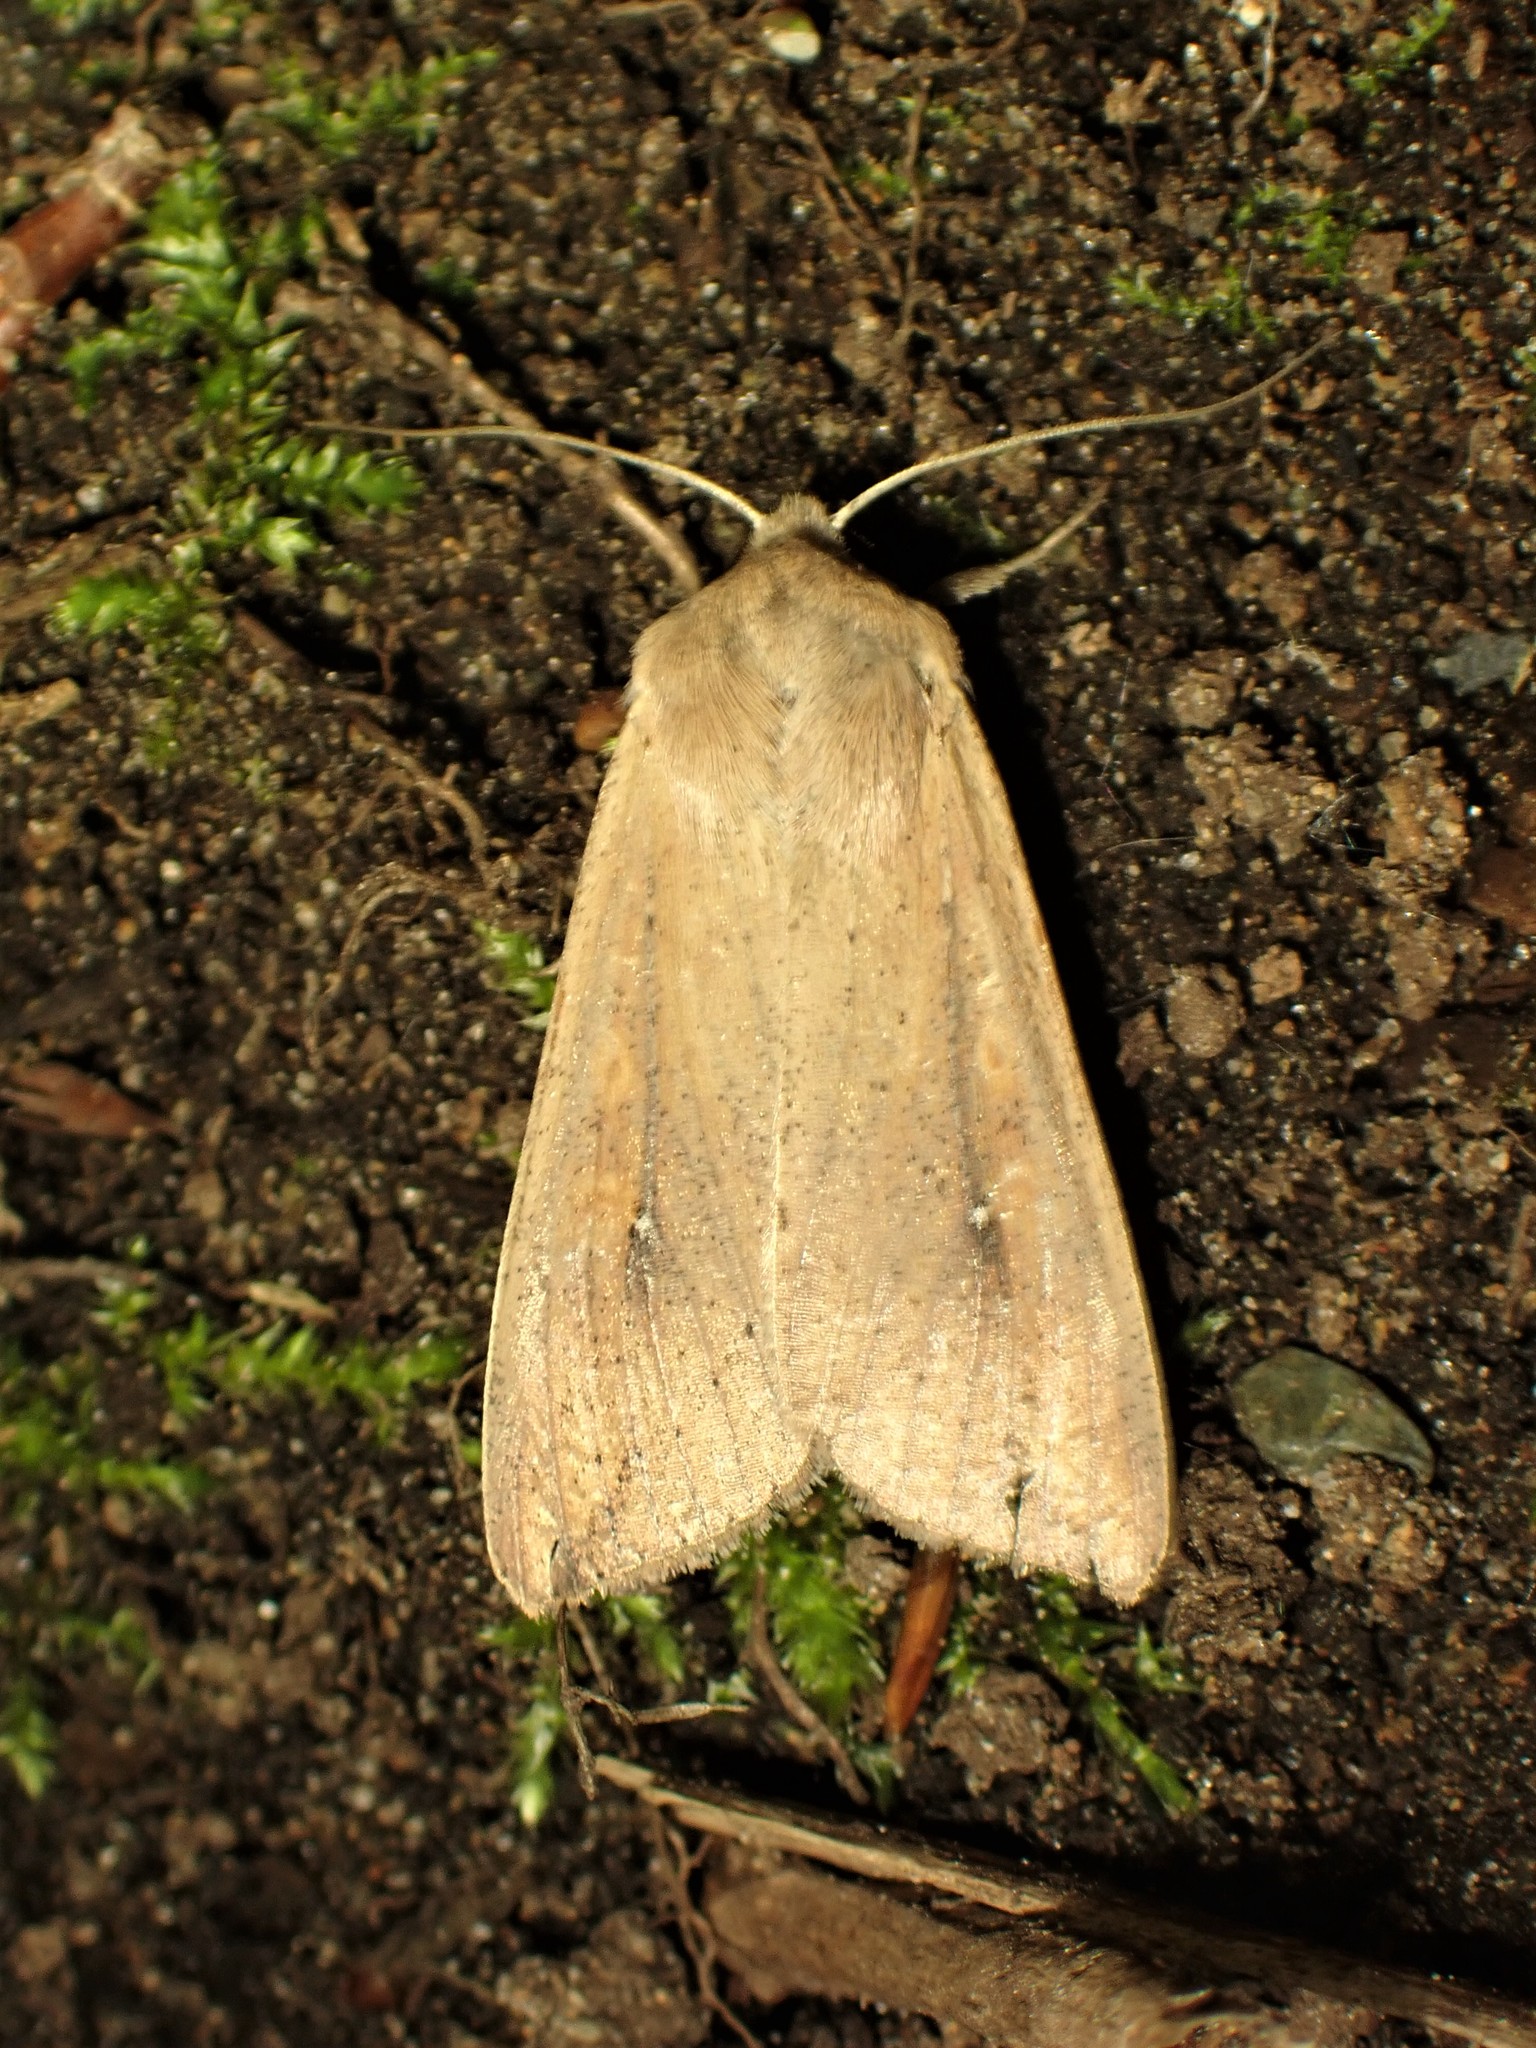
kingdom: Animalia
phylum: Arthropoda
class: Insecta
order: Lepidoptera
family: Noctuidae
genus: Mythimna
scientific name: Mythimna unipuncta
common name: White-speck
